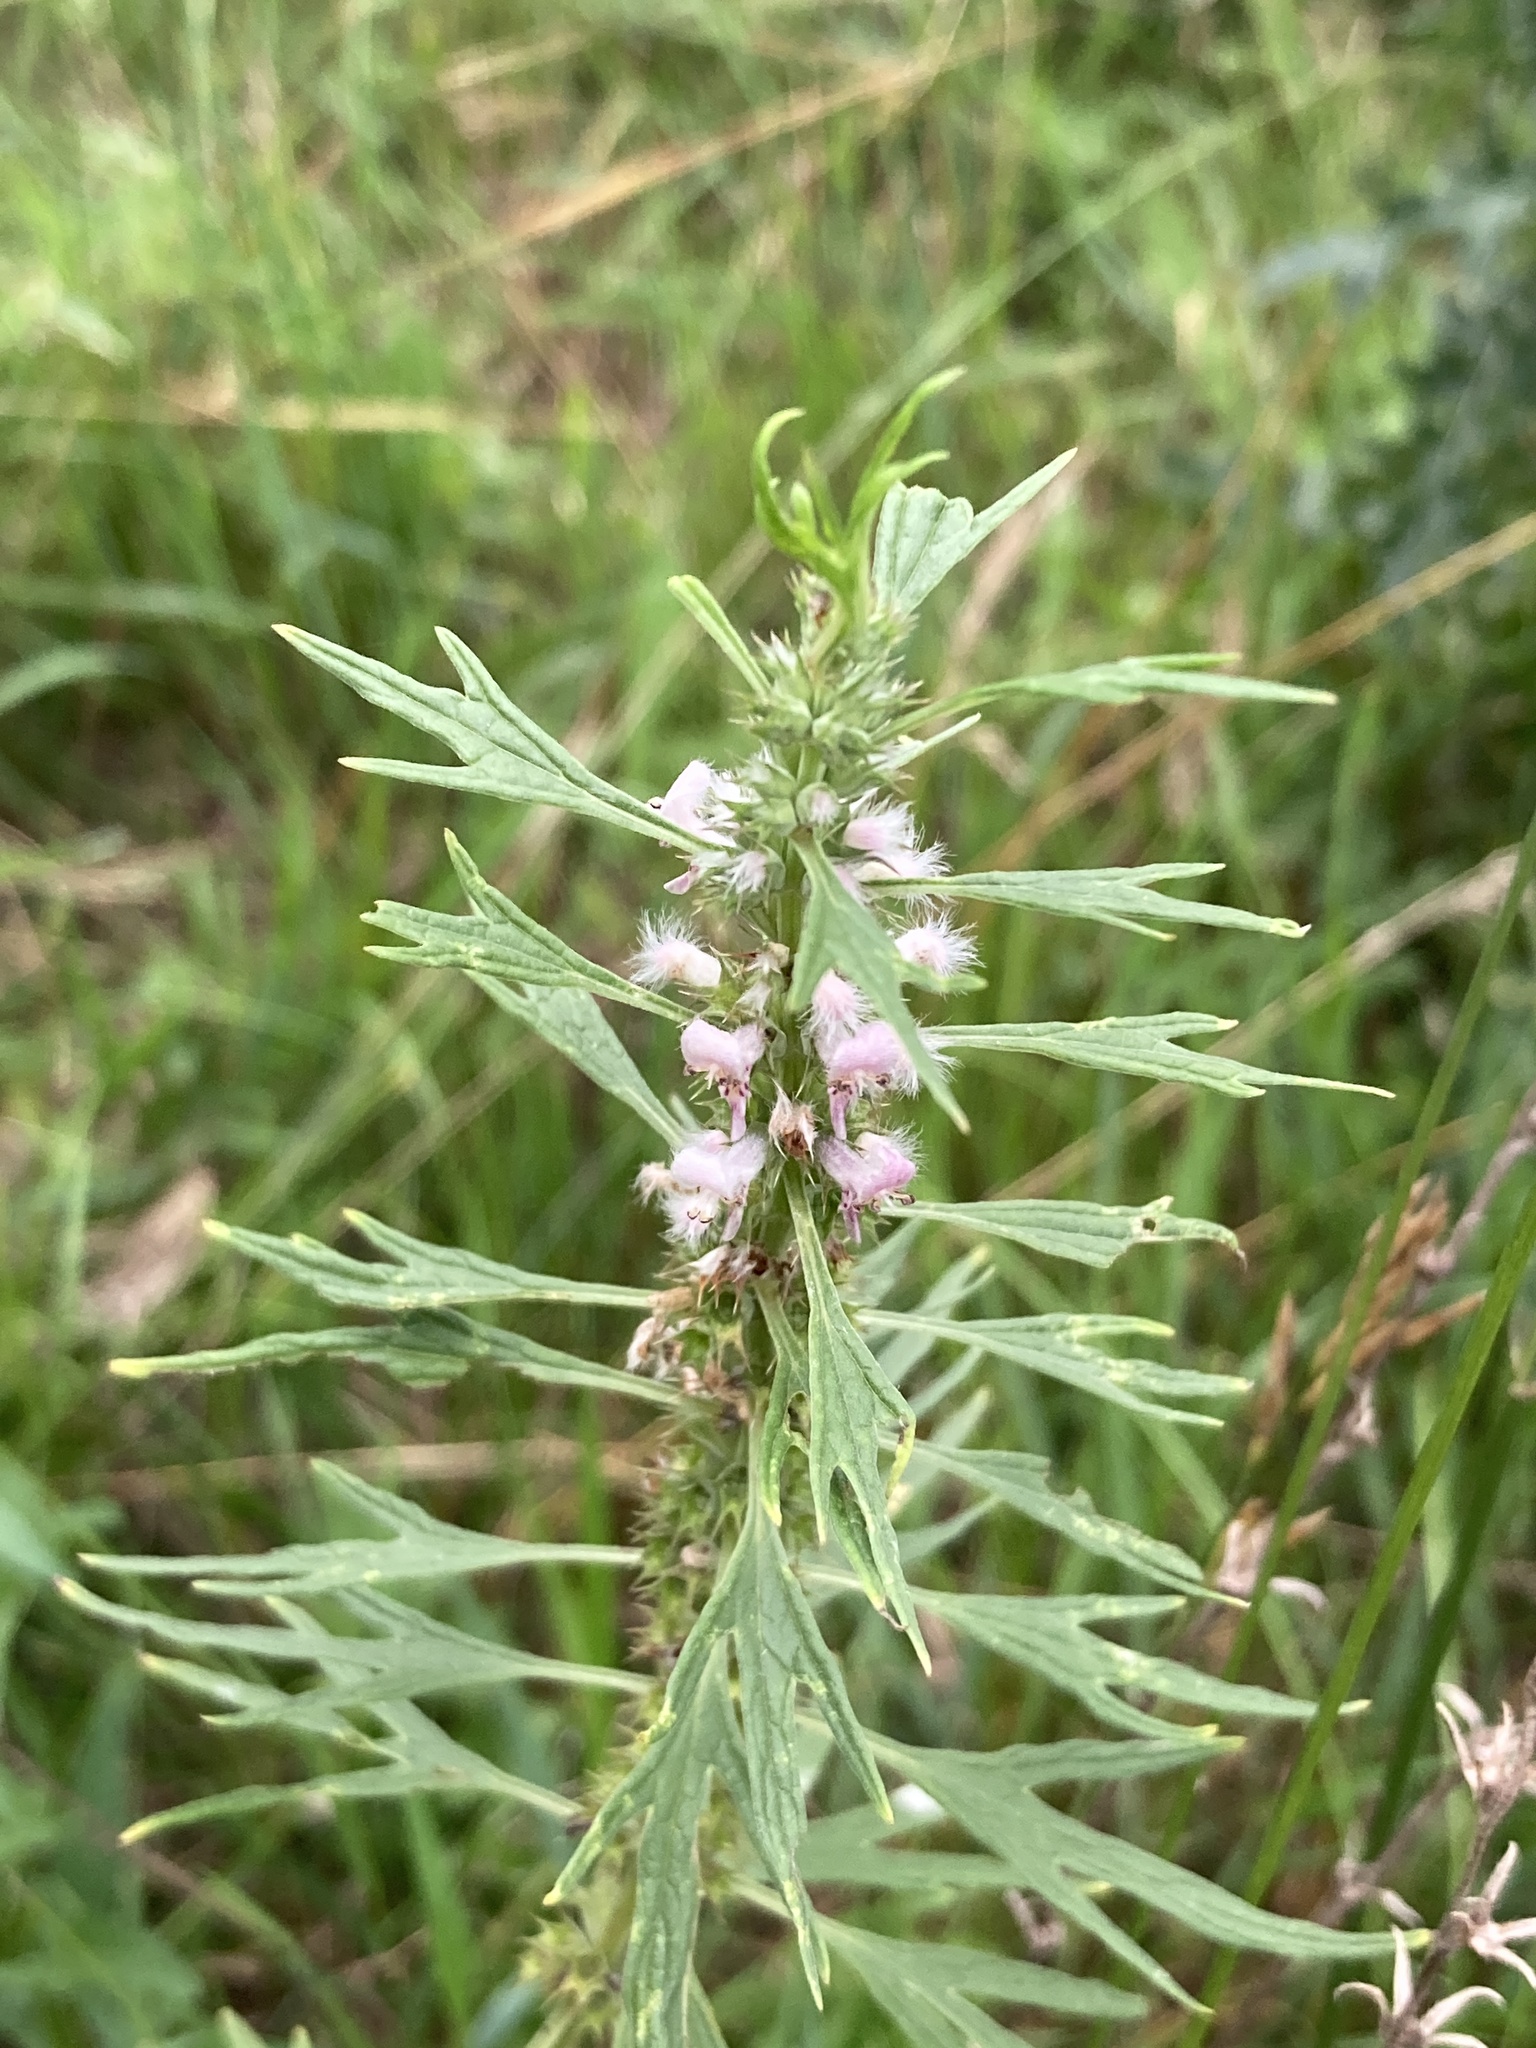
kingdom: Plantae
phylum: Tracheophyta
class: Magnoliopsida
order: Lamiales
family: Lamiaceae
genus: Leonurus
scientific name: Leonurus glaucescens
